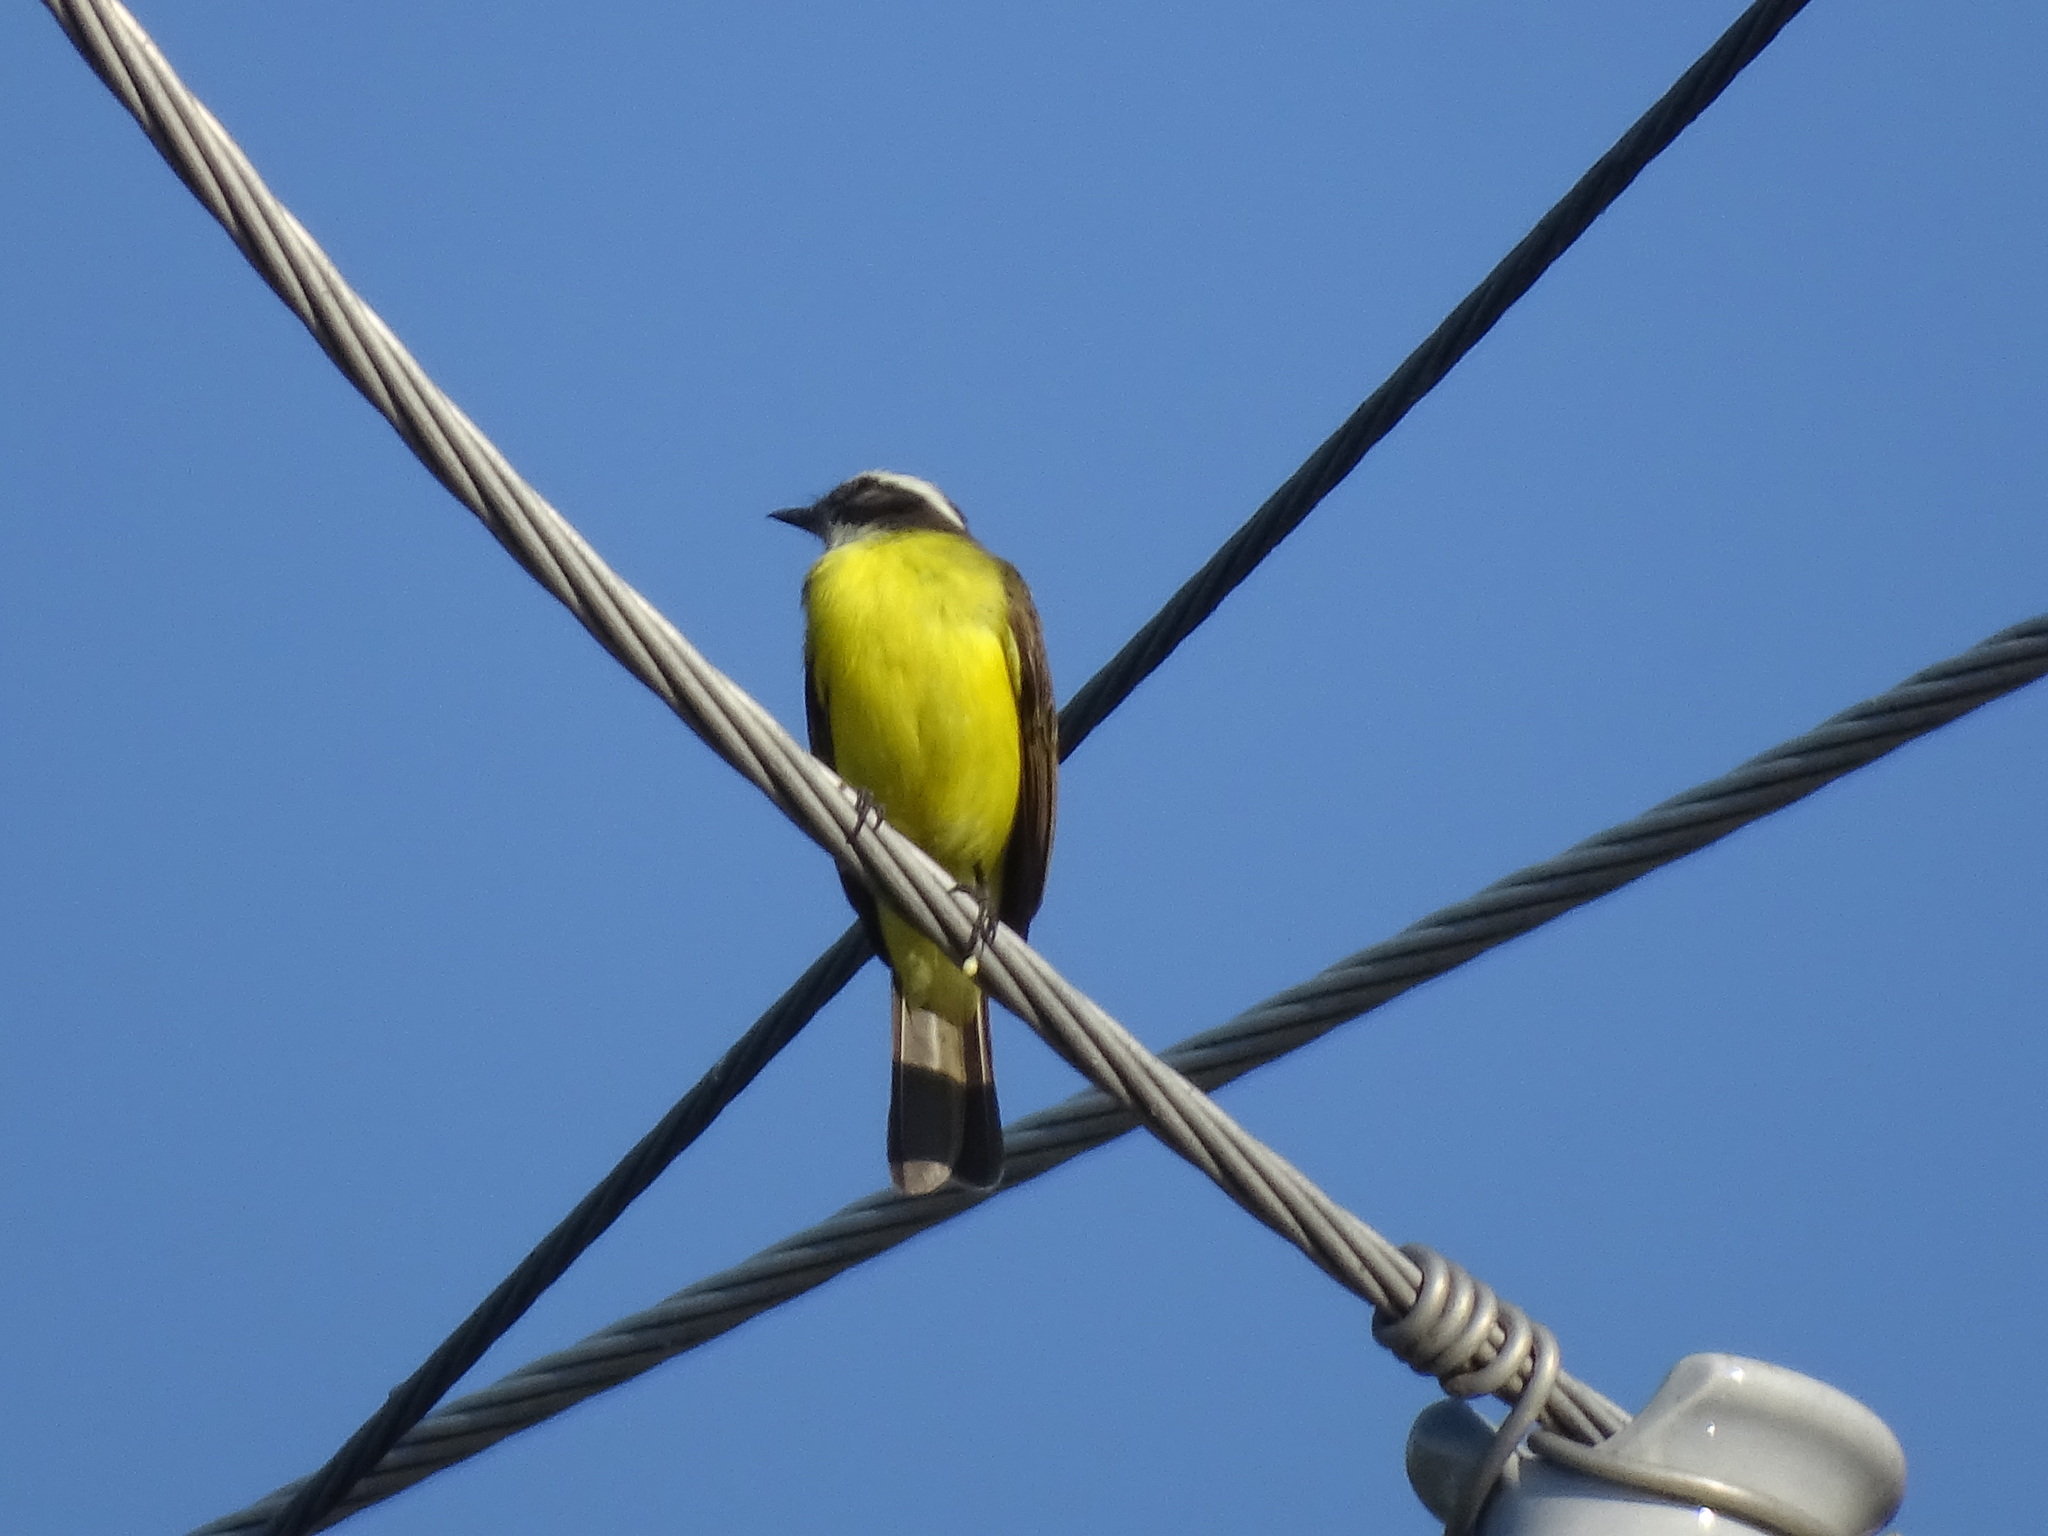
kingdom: Animalia
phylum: Chordata
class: Aves
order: Passeriformes
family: Tyrannidae
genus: Myiozetetes
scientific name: Myiozetetes similis
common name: Social flycatcher
